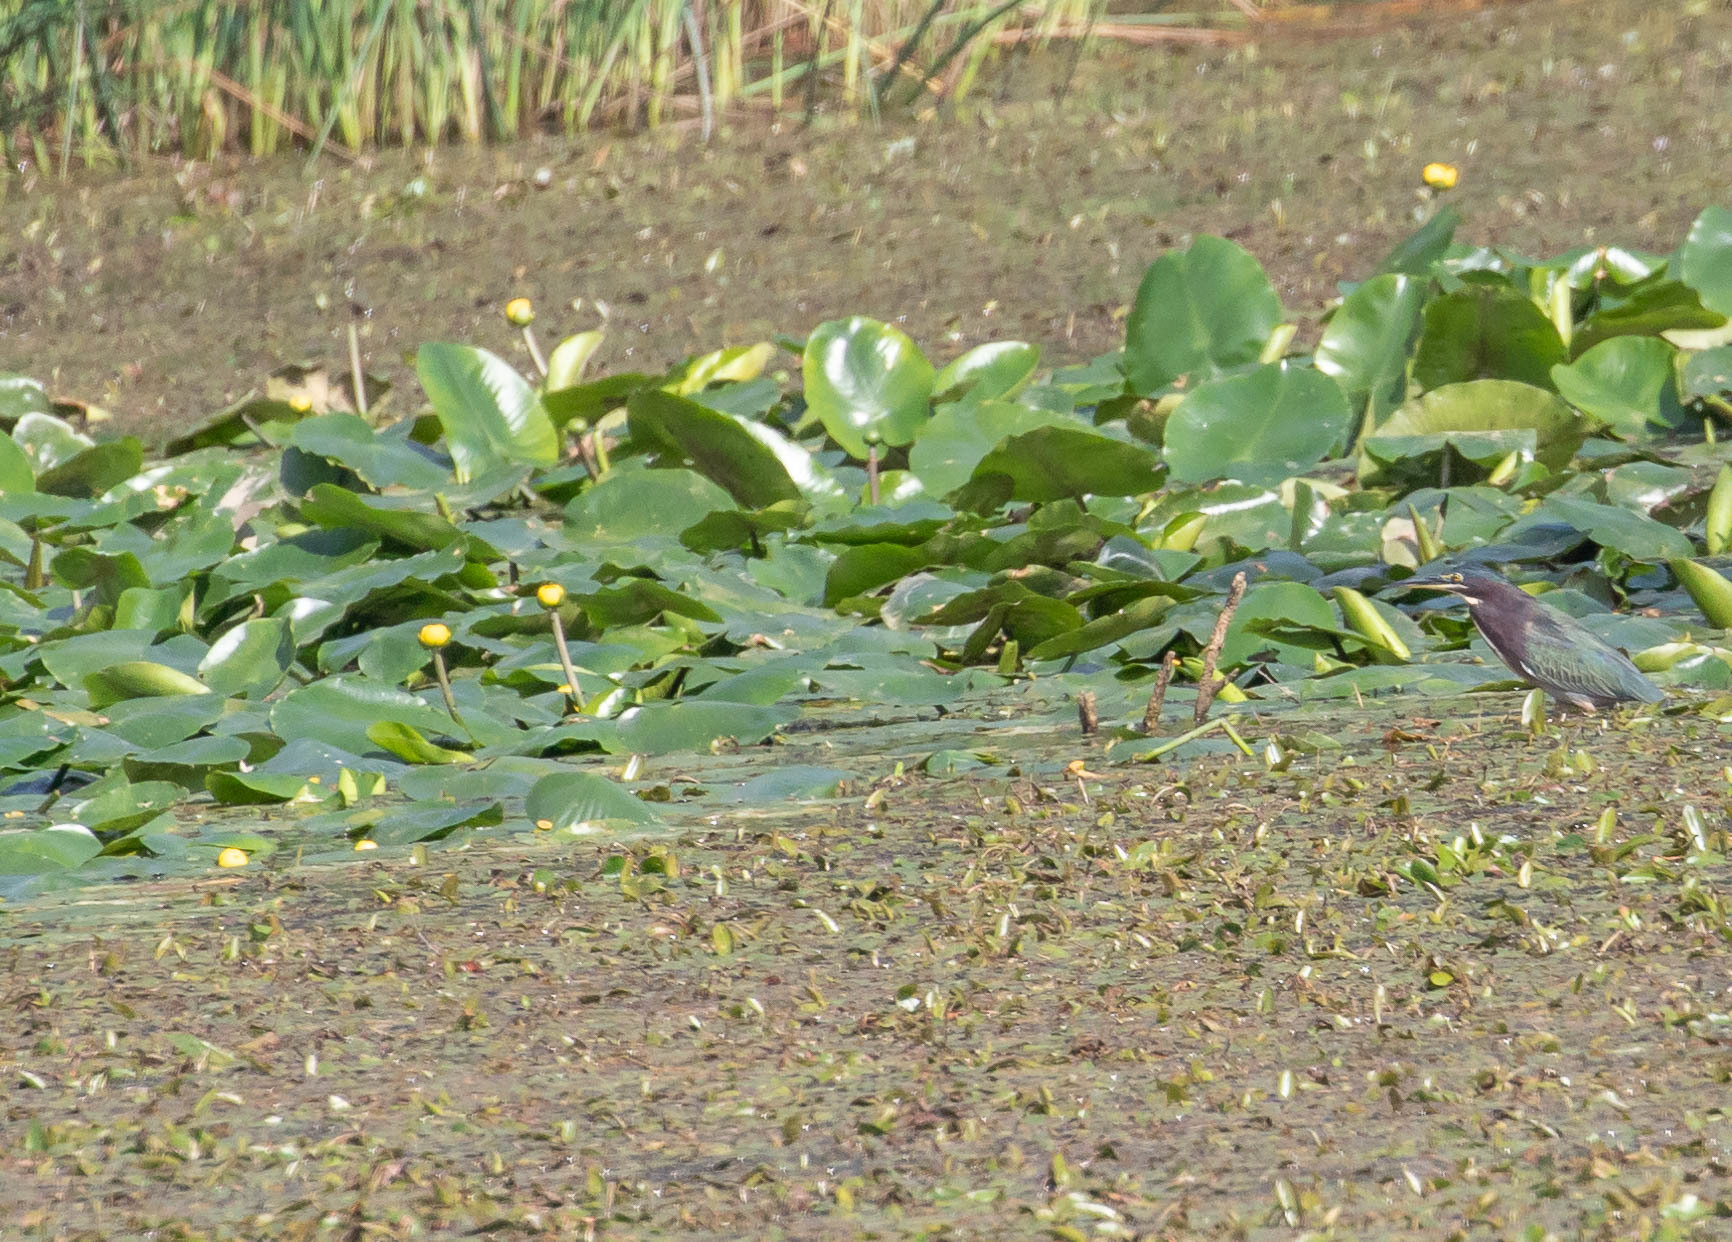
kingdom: Animalia
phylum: Chordata
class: Aves
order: Pelecaniformes
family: Ardeidae
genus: Butorides
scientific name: Butorides virescens
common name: Green heron
